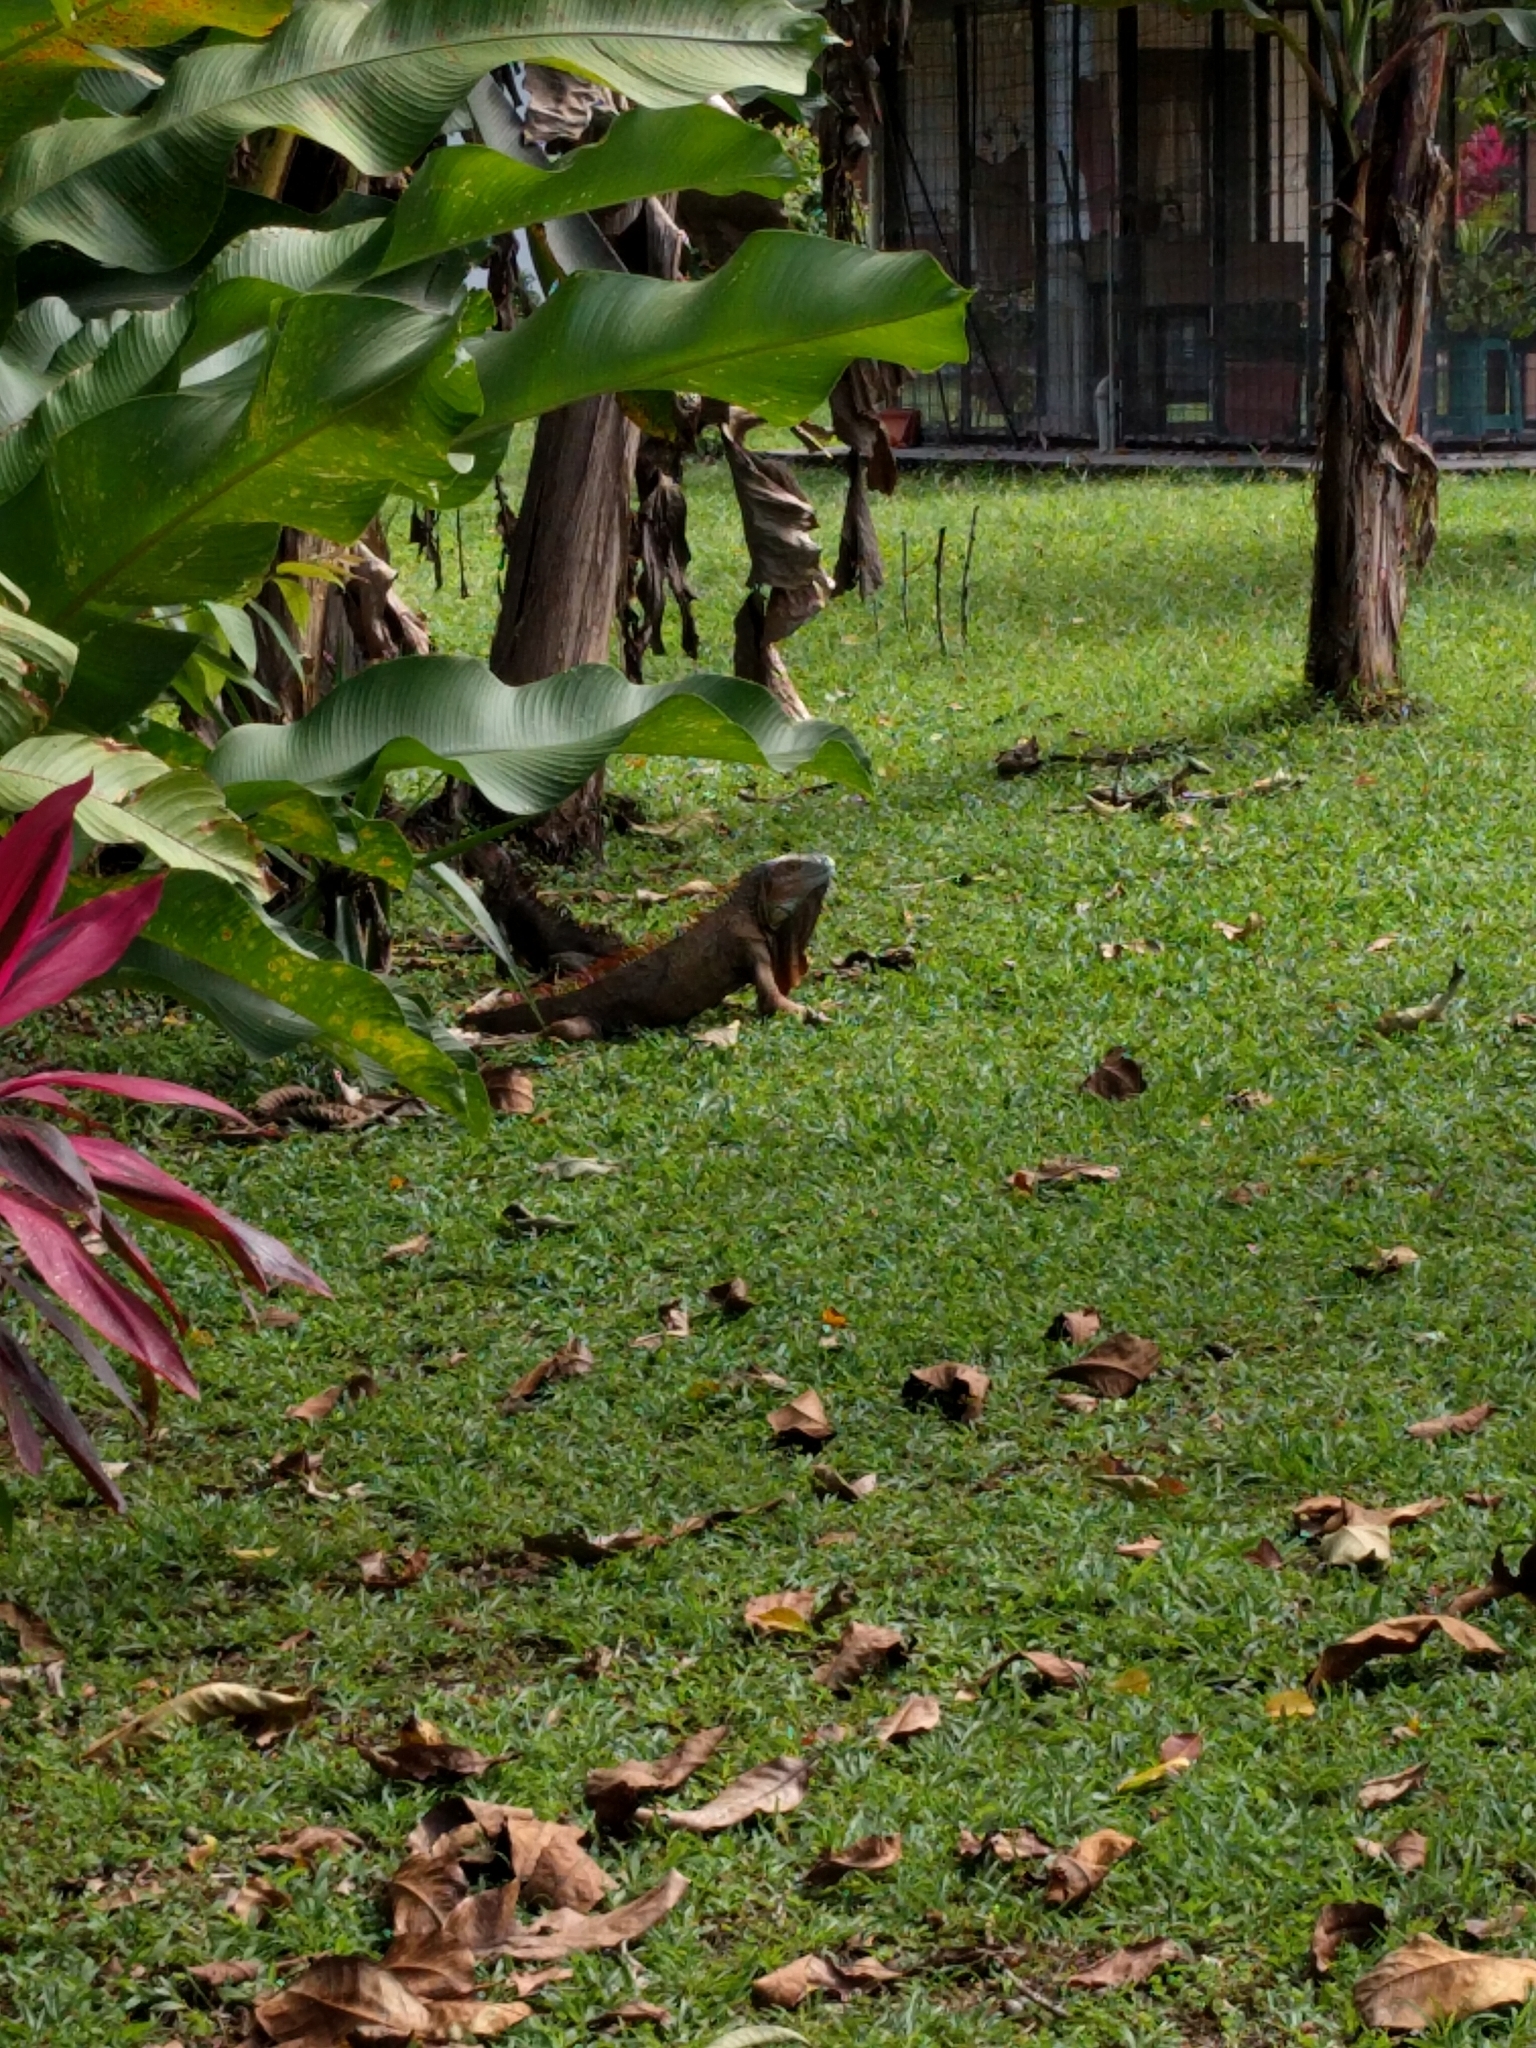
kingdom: Animalia
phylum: Chordata
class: Squamata
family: Iguanidae
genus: Iguana
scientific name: Iguana iguana
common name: Green iguana
